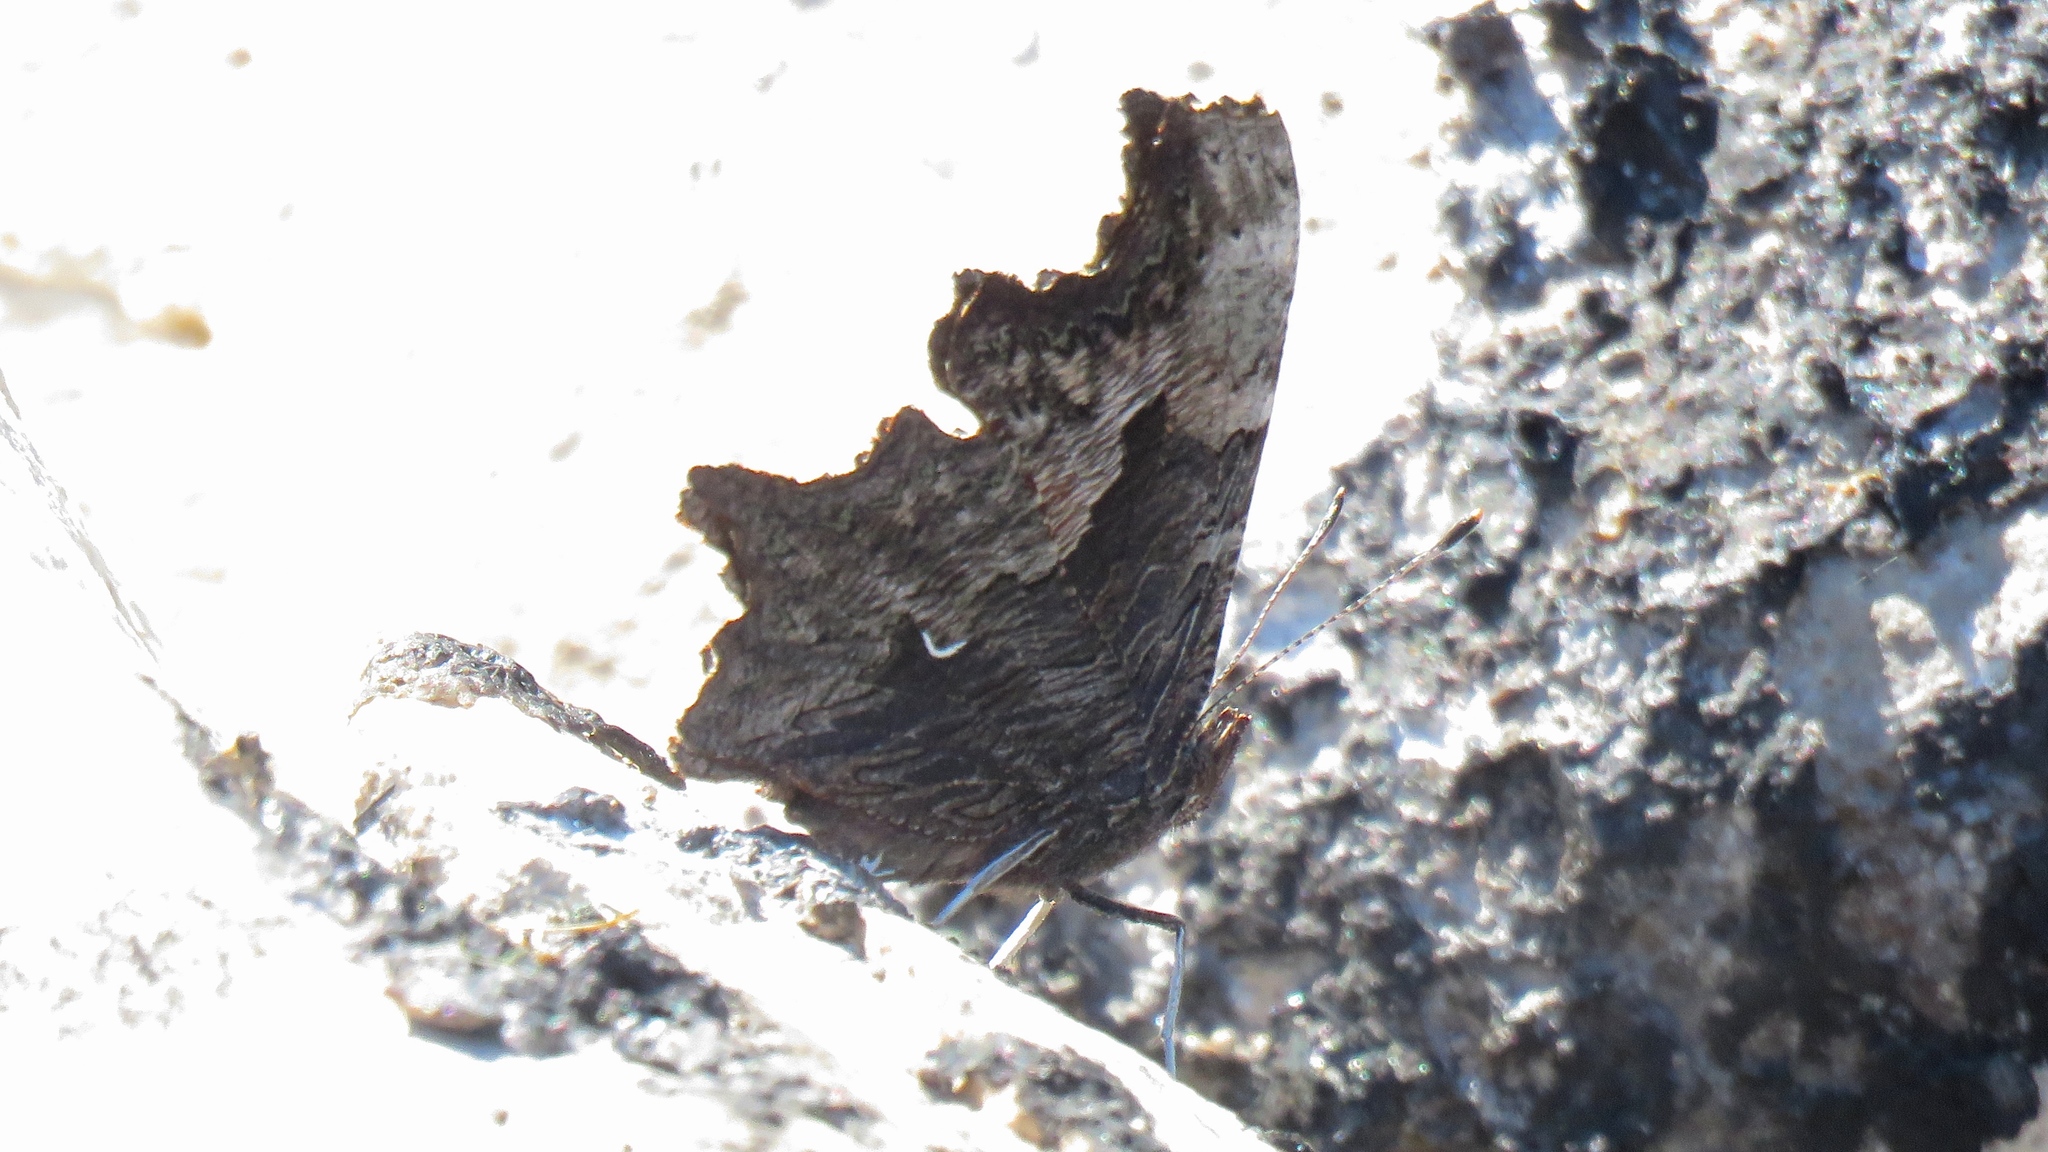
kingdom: Animalia
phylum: Arthropoda
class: Insecta
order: Lepidoptera
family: Nymphalidae
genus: Polygonia
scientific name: Polygonia progne
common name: Gray comma
